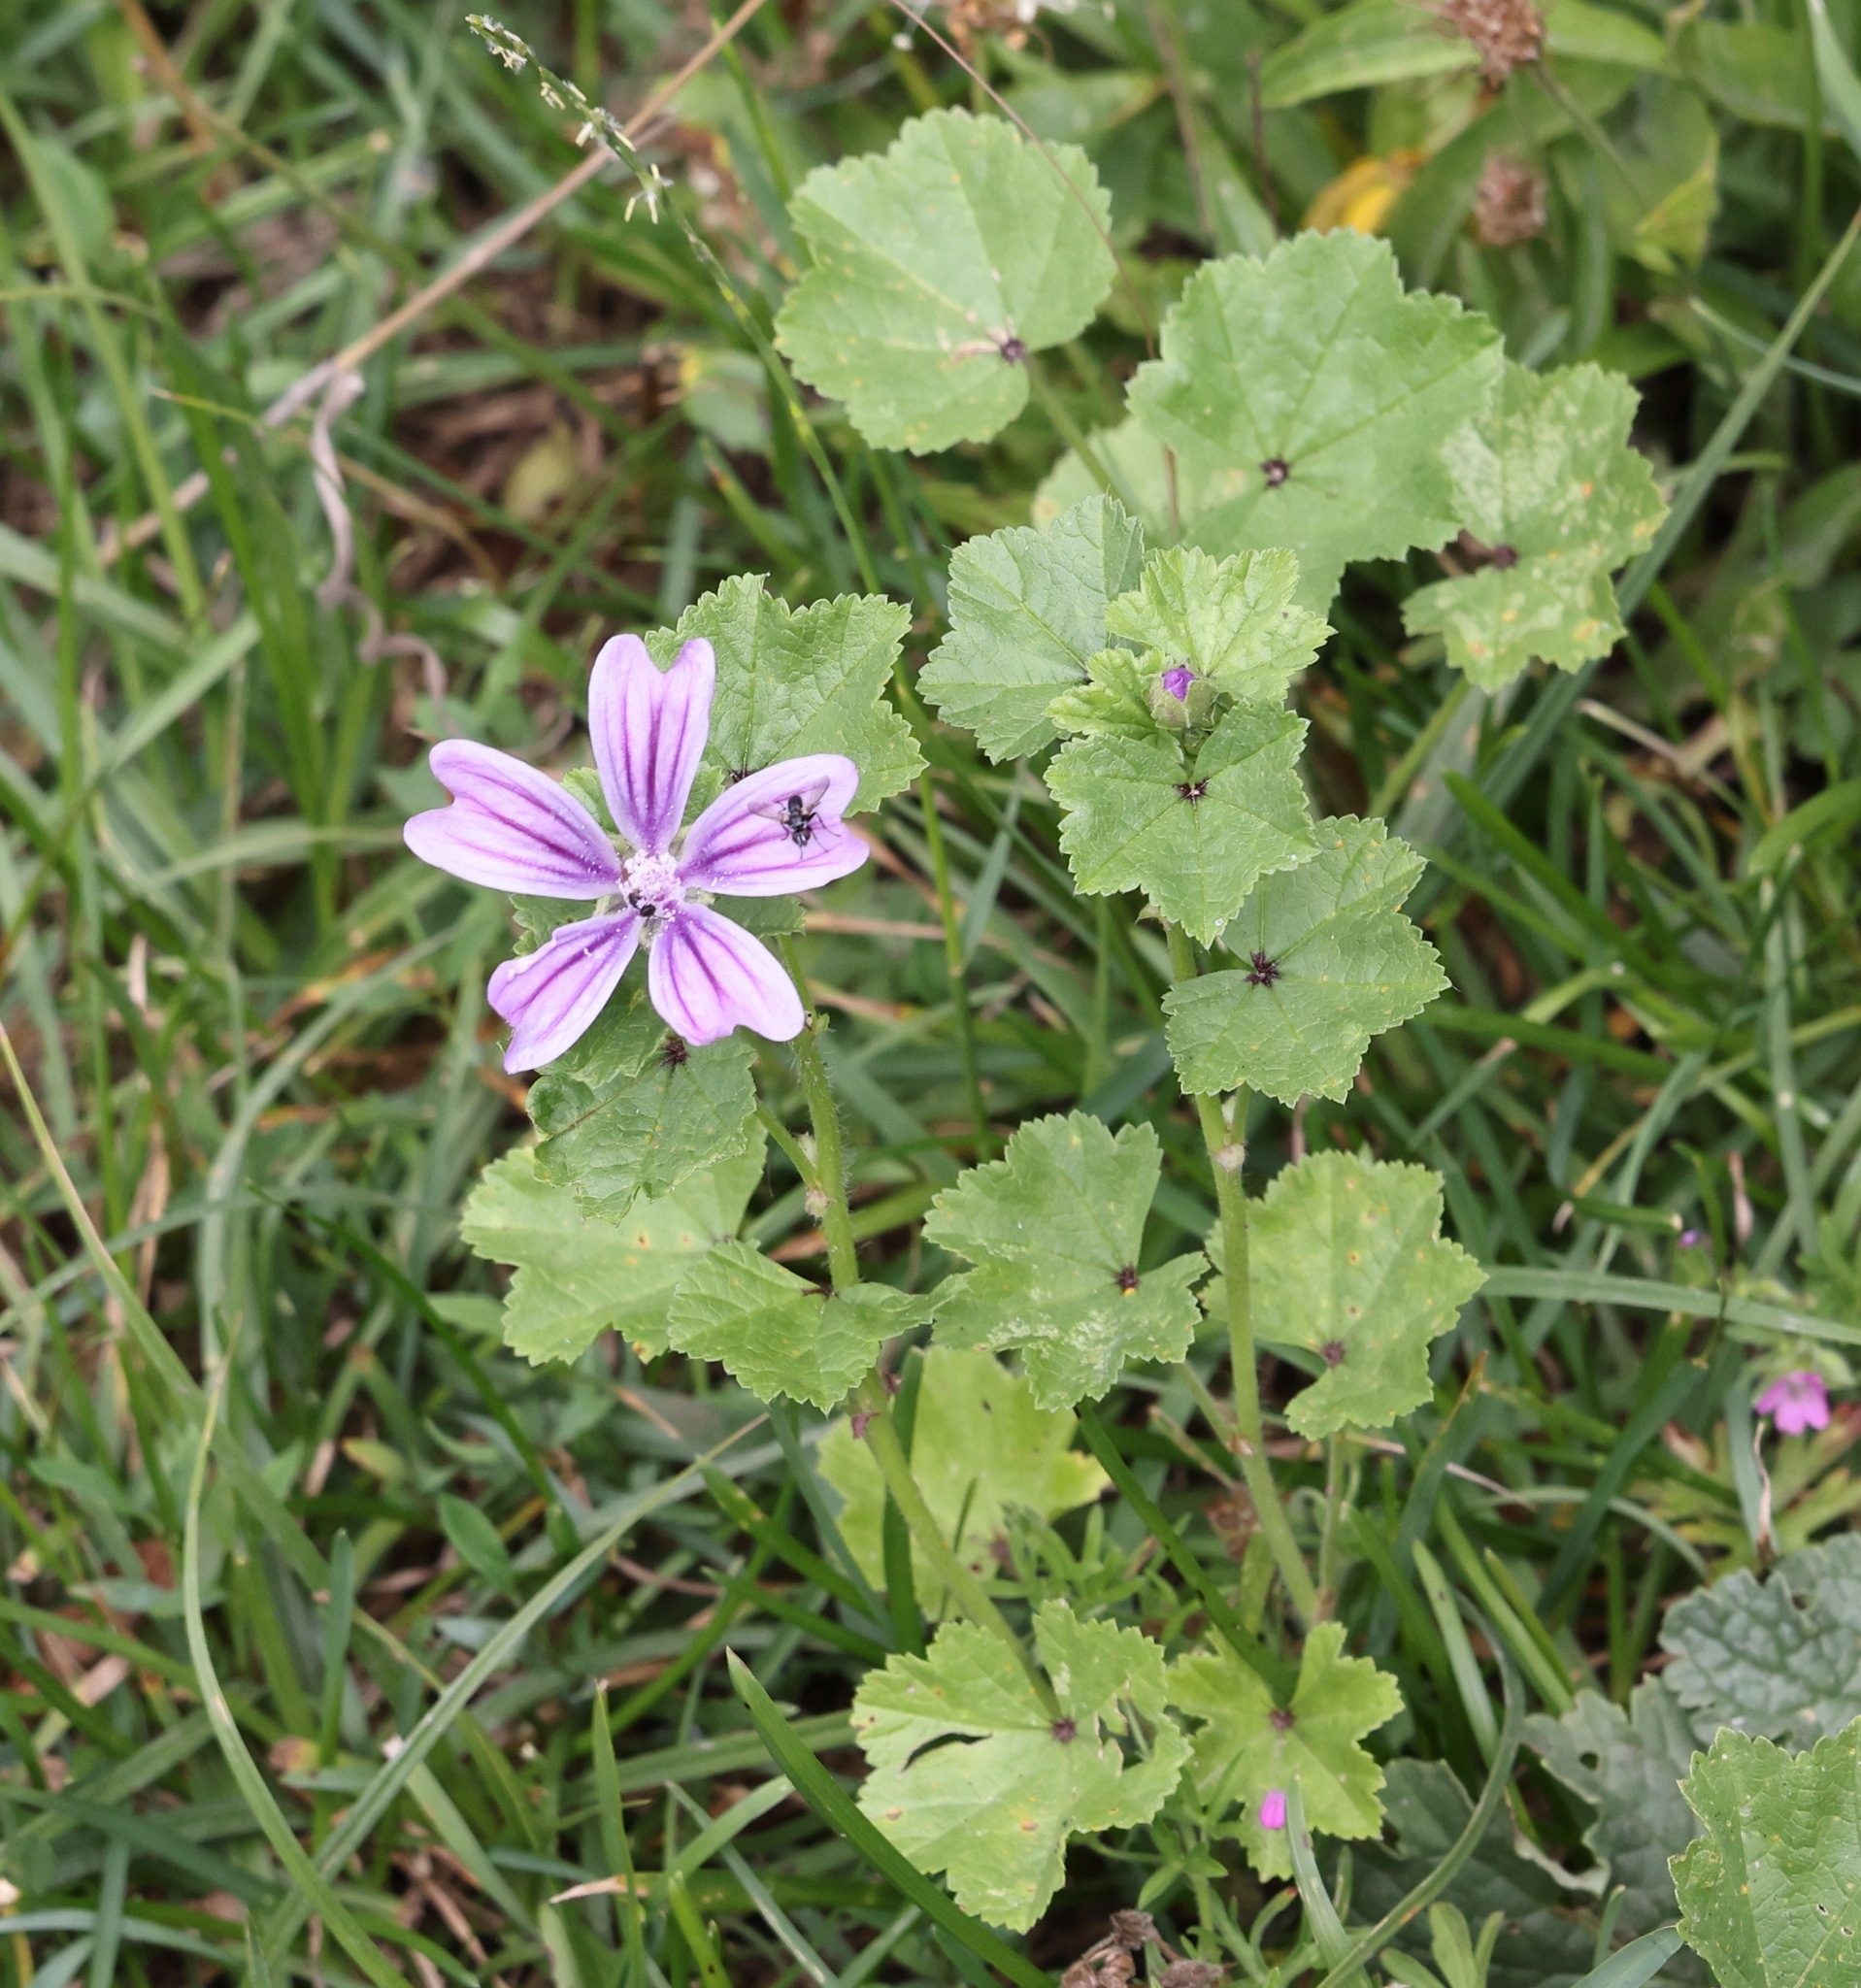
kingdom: Plantae
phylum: Tracheophyta
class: Magnoliopsida
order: Malvales
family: Malvaceae
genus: Malva
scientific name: Malva sylvestris
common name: Common mallow
